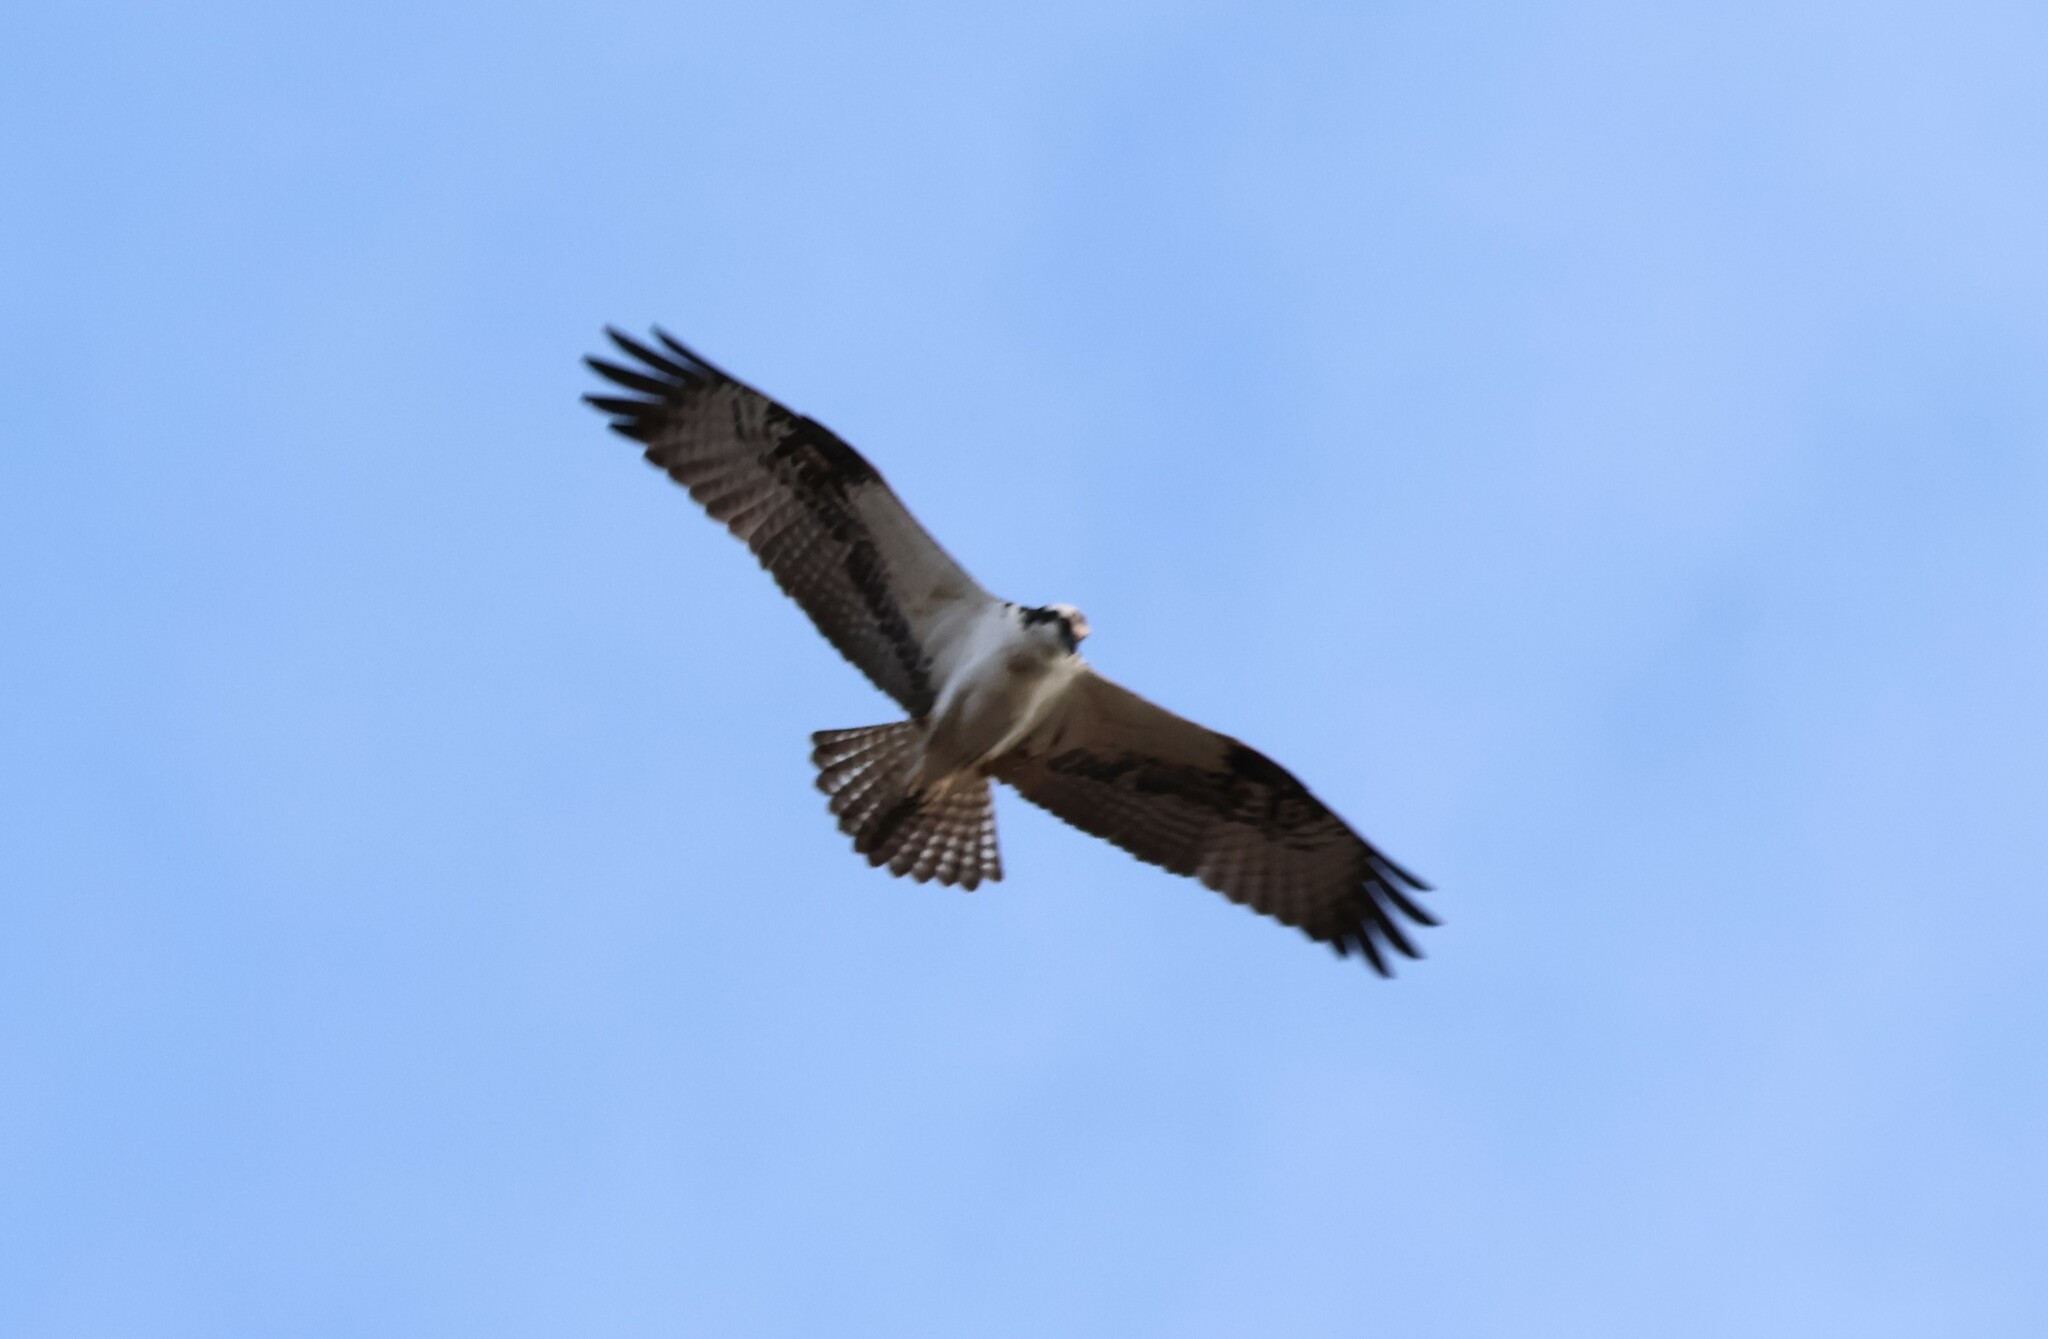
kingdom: Animalia
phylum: Chordata
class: Aves
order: Accipitriformes
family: Pandionidae
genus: Pandion
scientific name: Pandion haliaetus
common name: Osprey
